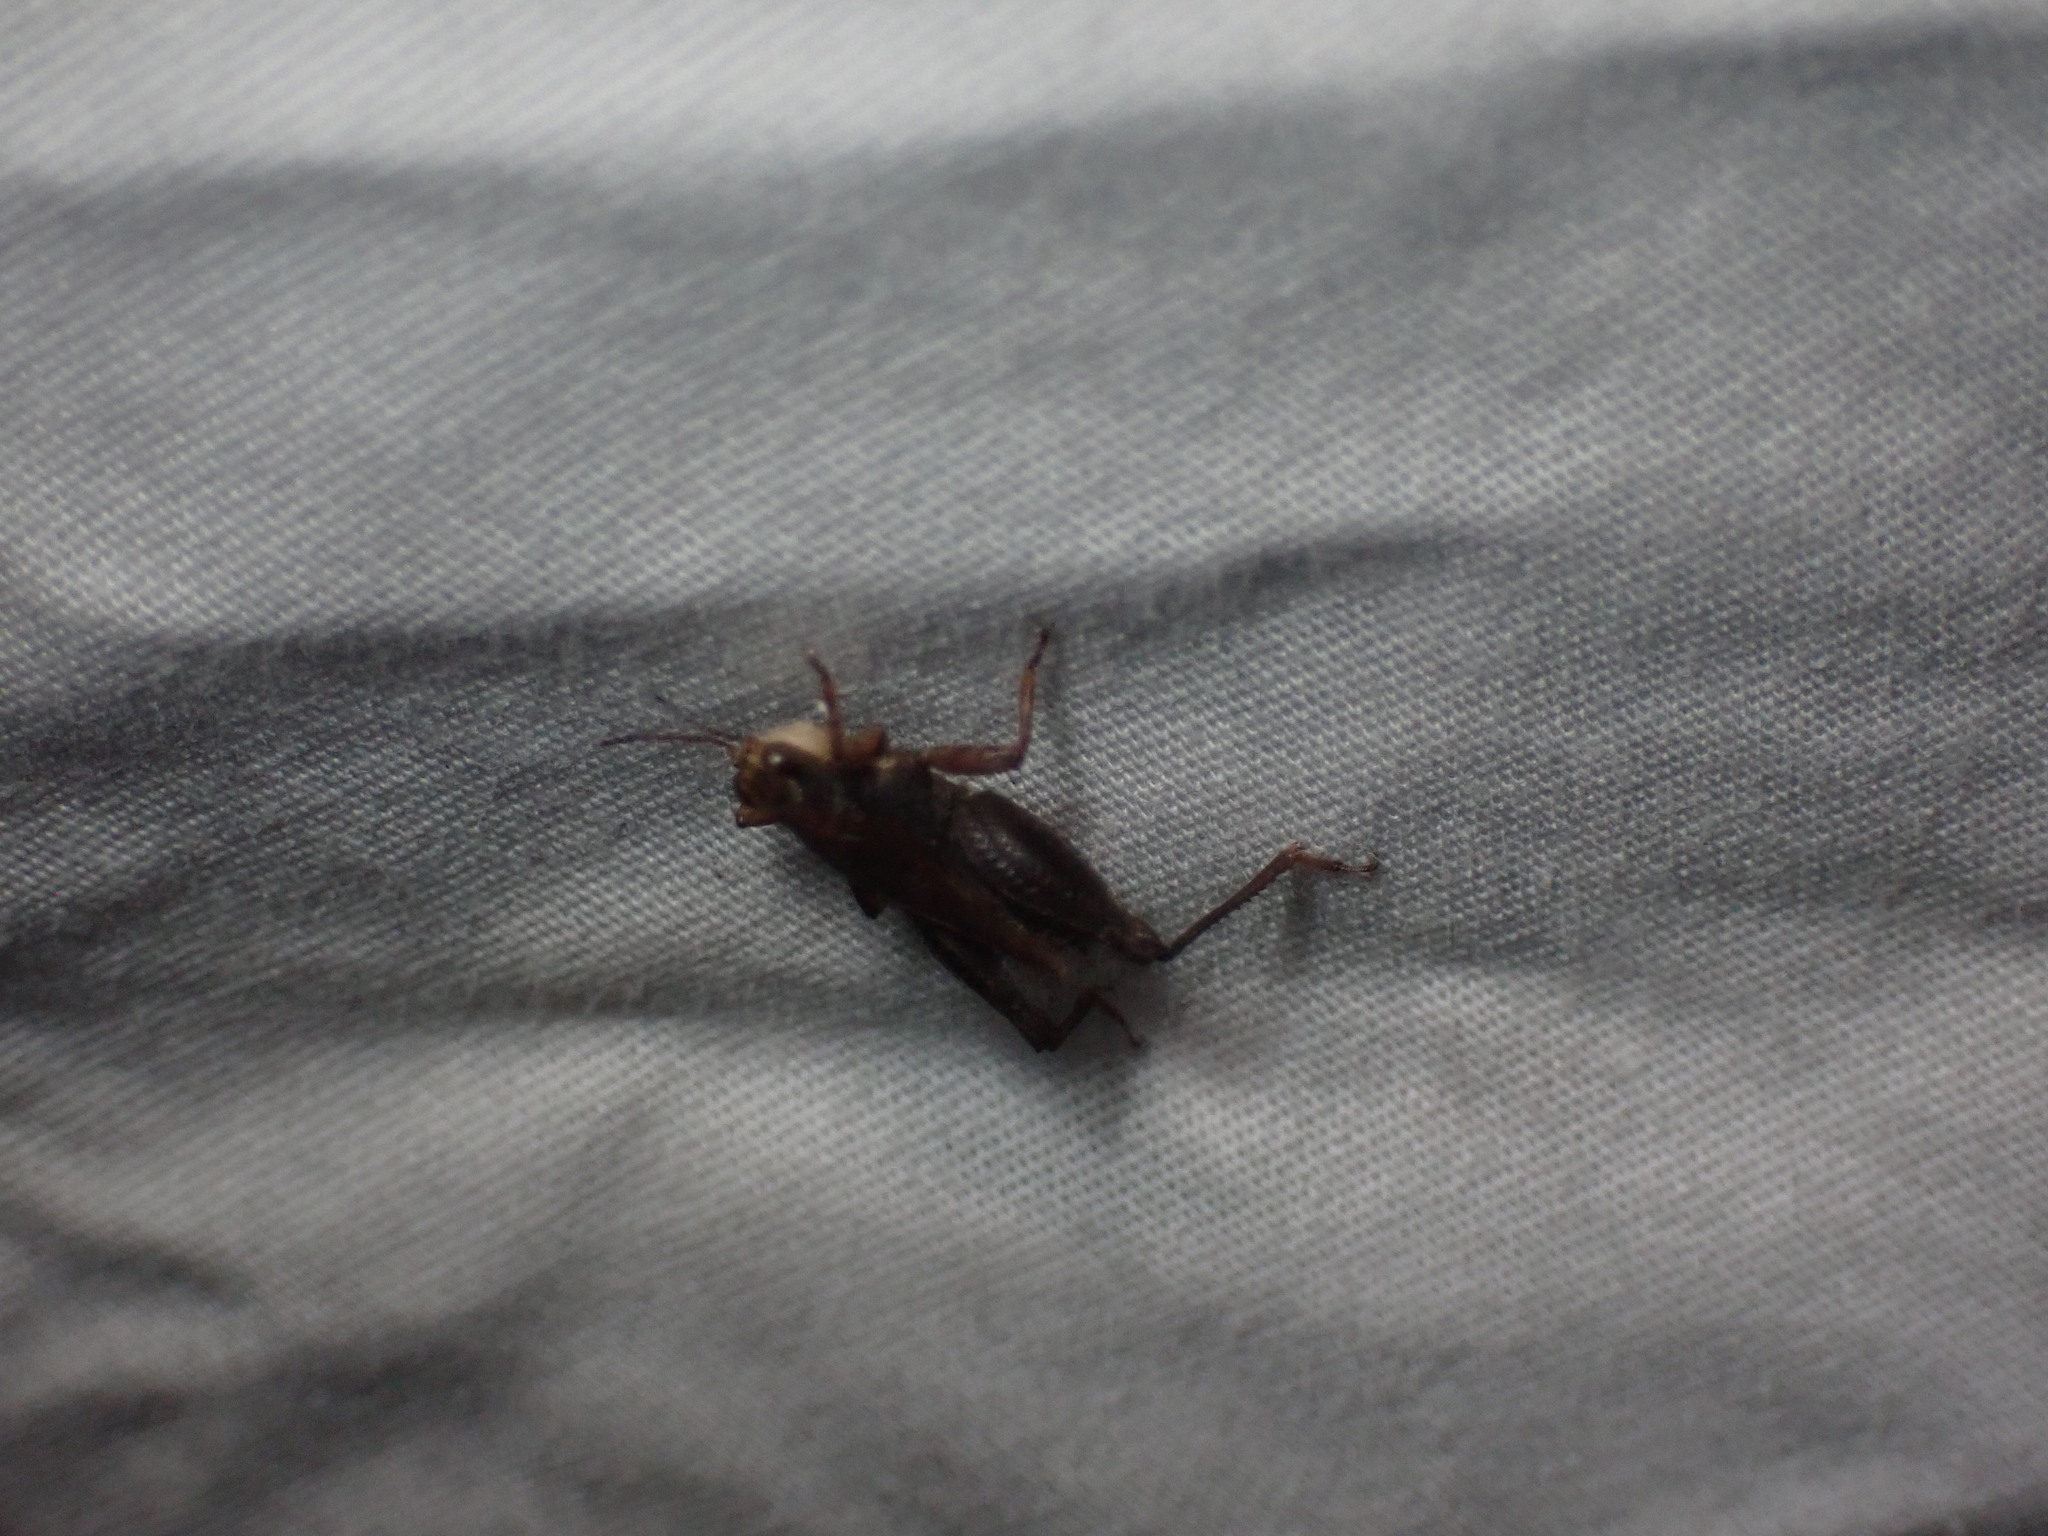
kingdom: Animalia
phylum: Arthropoda
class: Insecta
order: Orthoptera
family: Tetrigidae
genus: Tettigidea
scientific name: Tettigidea laterale
